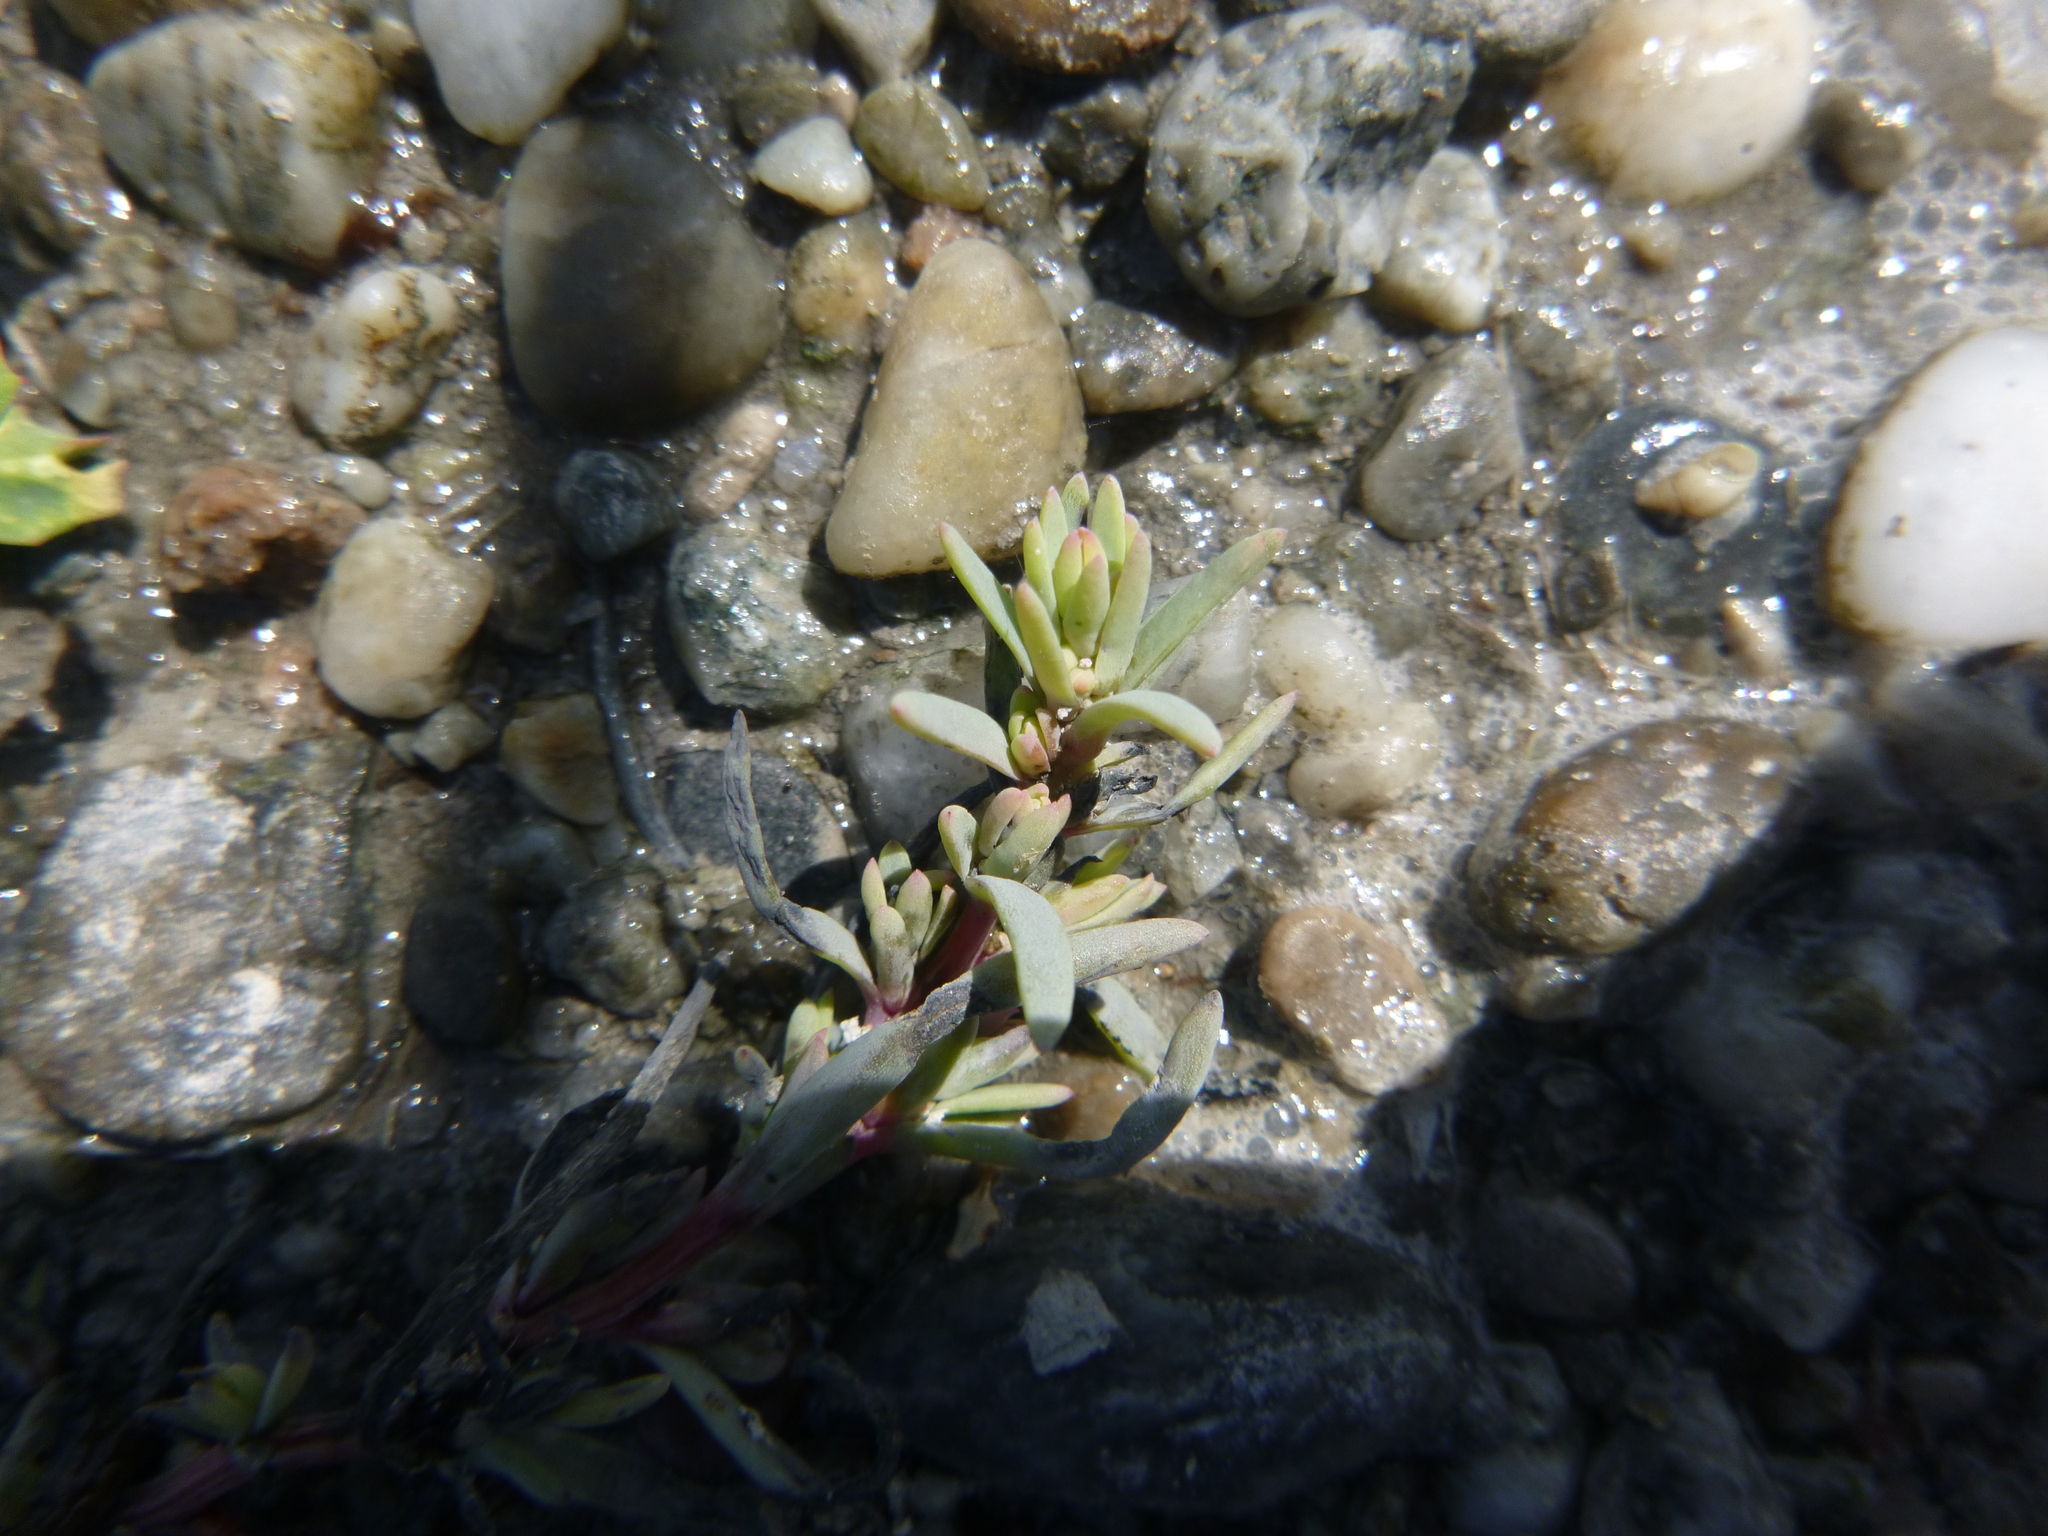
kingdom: Plantae
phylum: Tracheophyta
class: Magnoliopsida
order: Caryophyllales
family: Amaranthaceae
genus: Suaeda
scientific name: Suaeda pannonica
